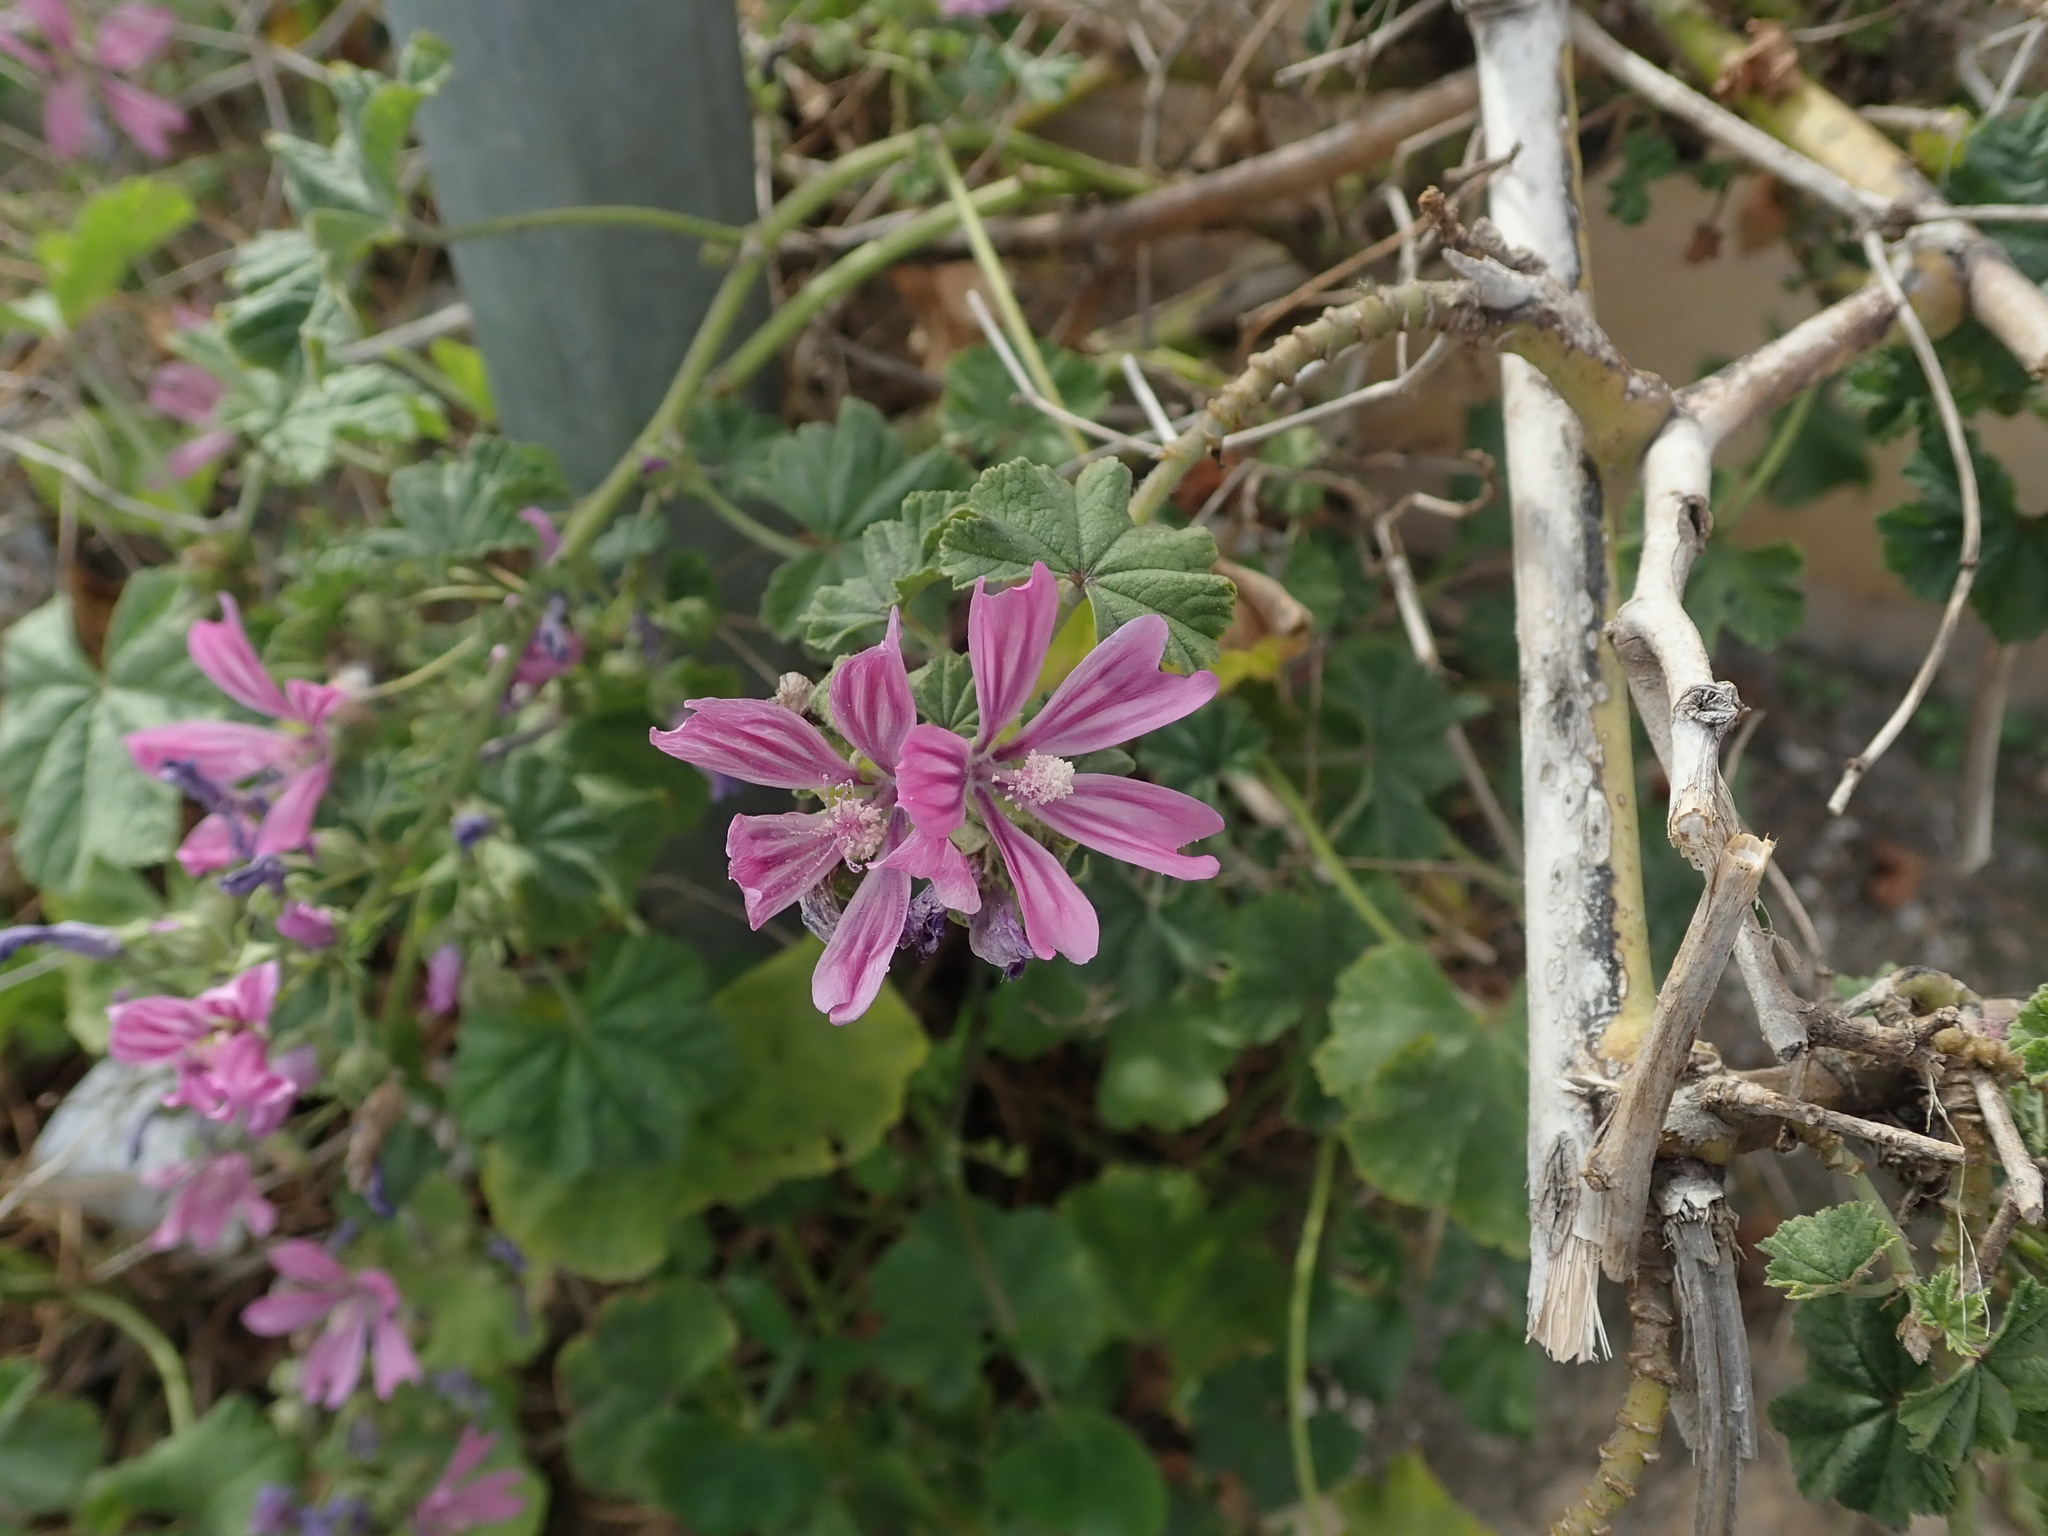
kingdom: Plantae
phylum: Tracheophyta
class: Magnoliopsida
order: Malvales
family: Malvaceae
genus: Malva
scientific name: Malva sylvestris
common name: Common mallow
